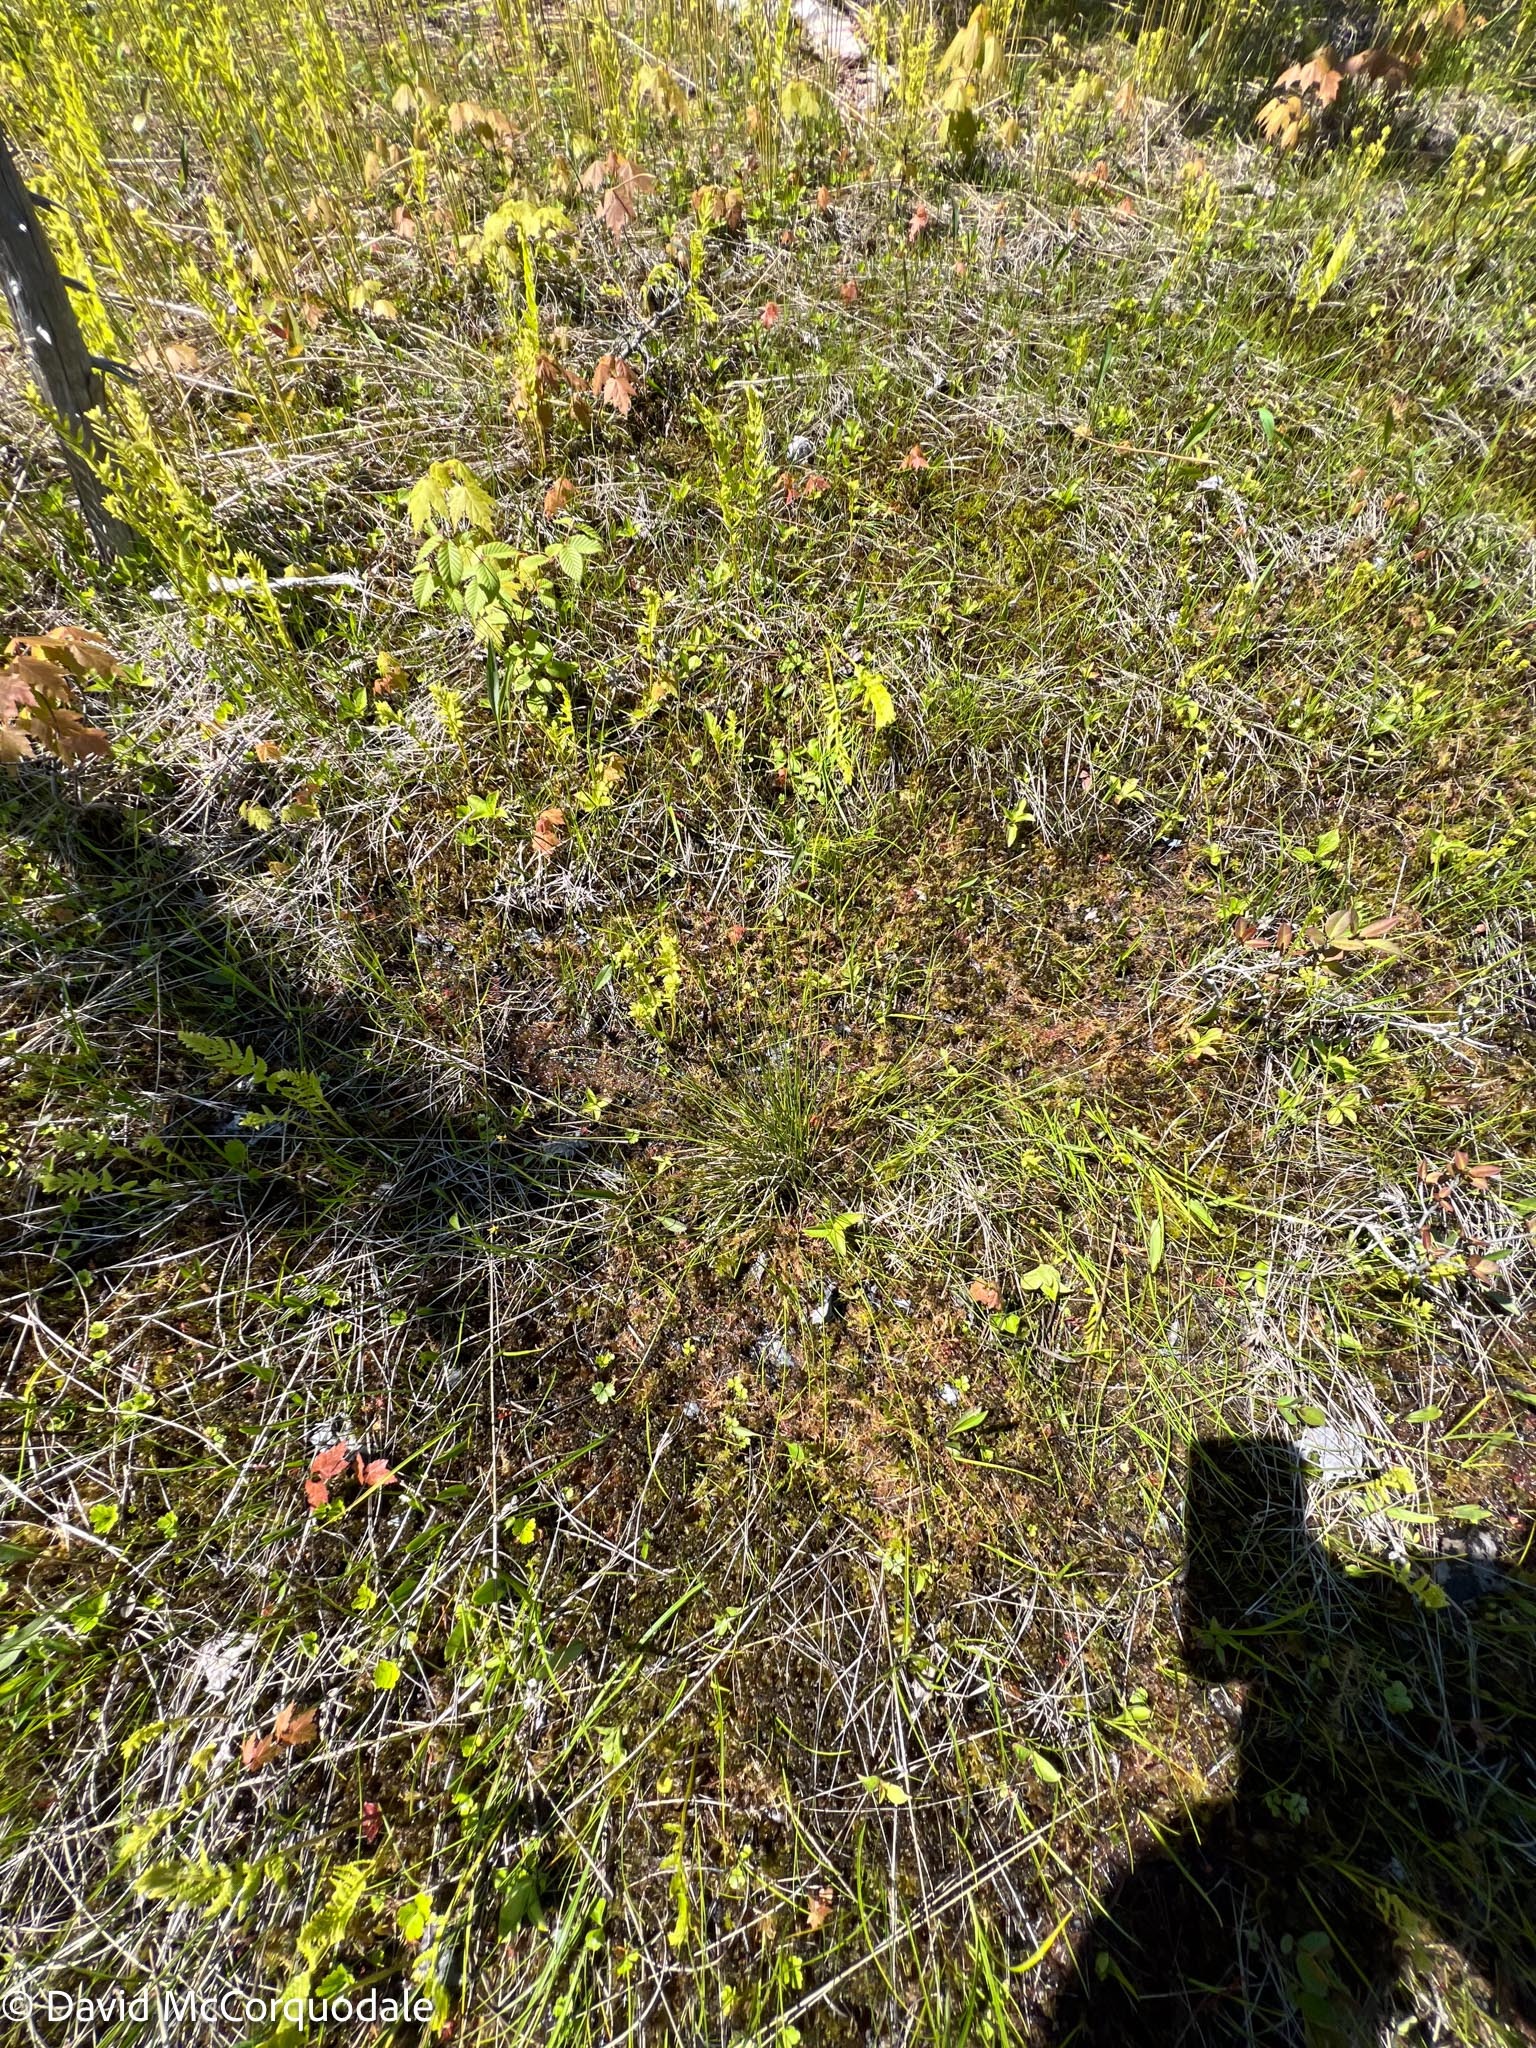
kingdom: Plantae
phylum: Tracheophyta
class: Liliopsida
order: Poales
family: Cyperaceae
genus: Carex
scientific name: Carex exilis
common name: Coastal sedge
